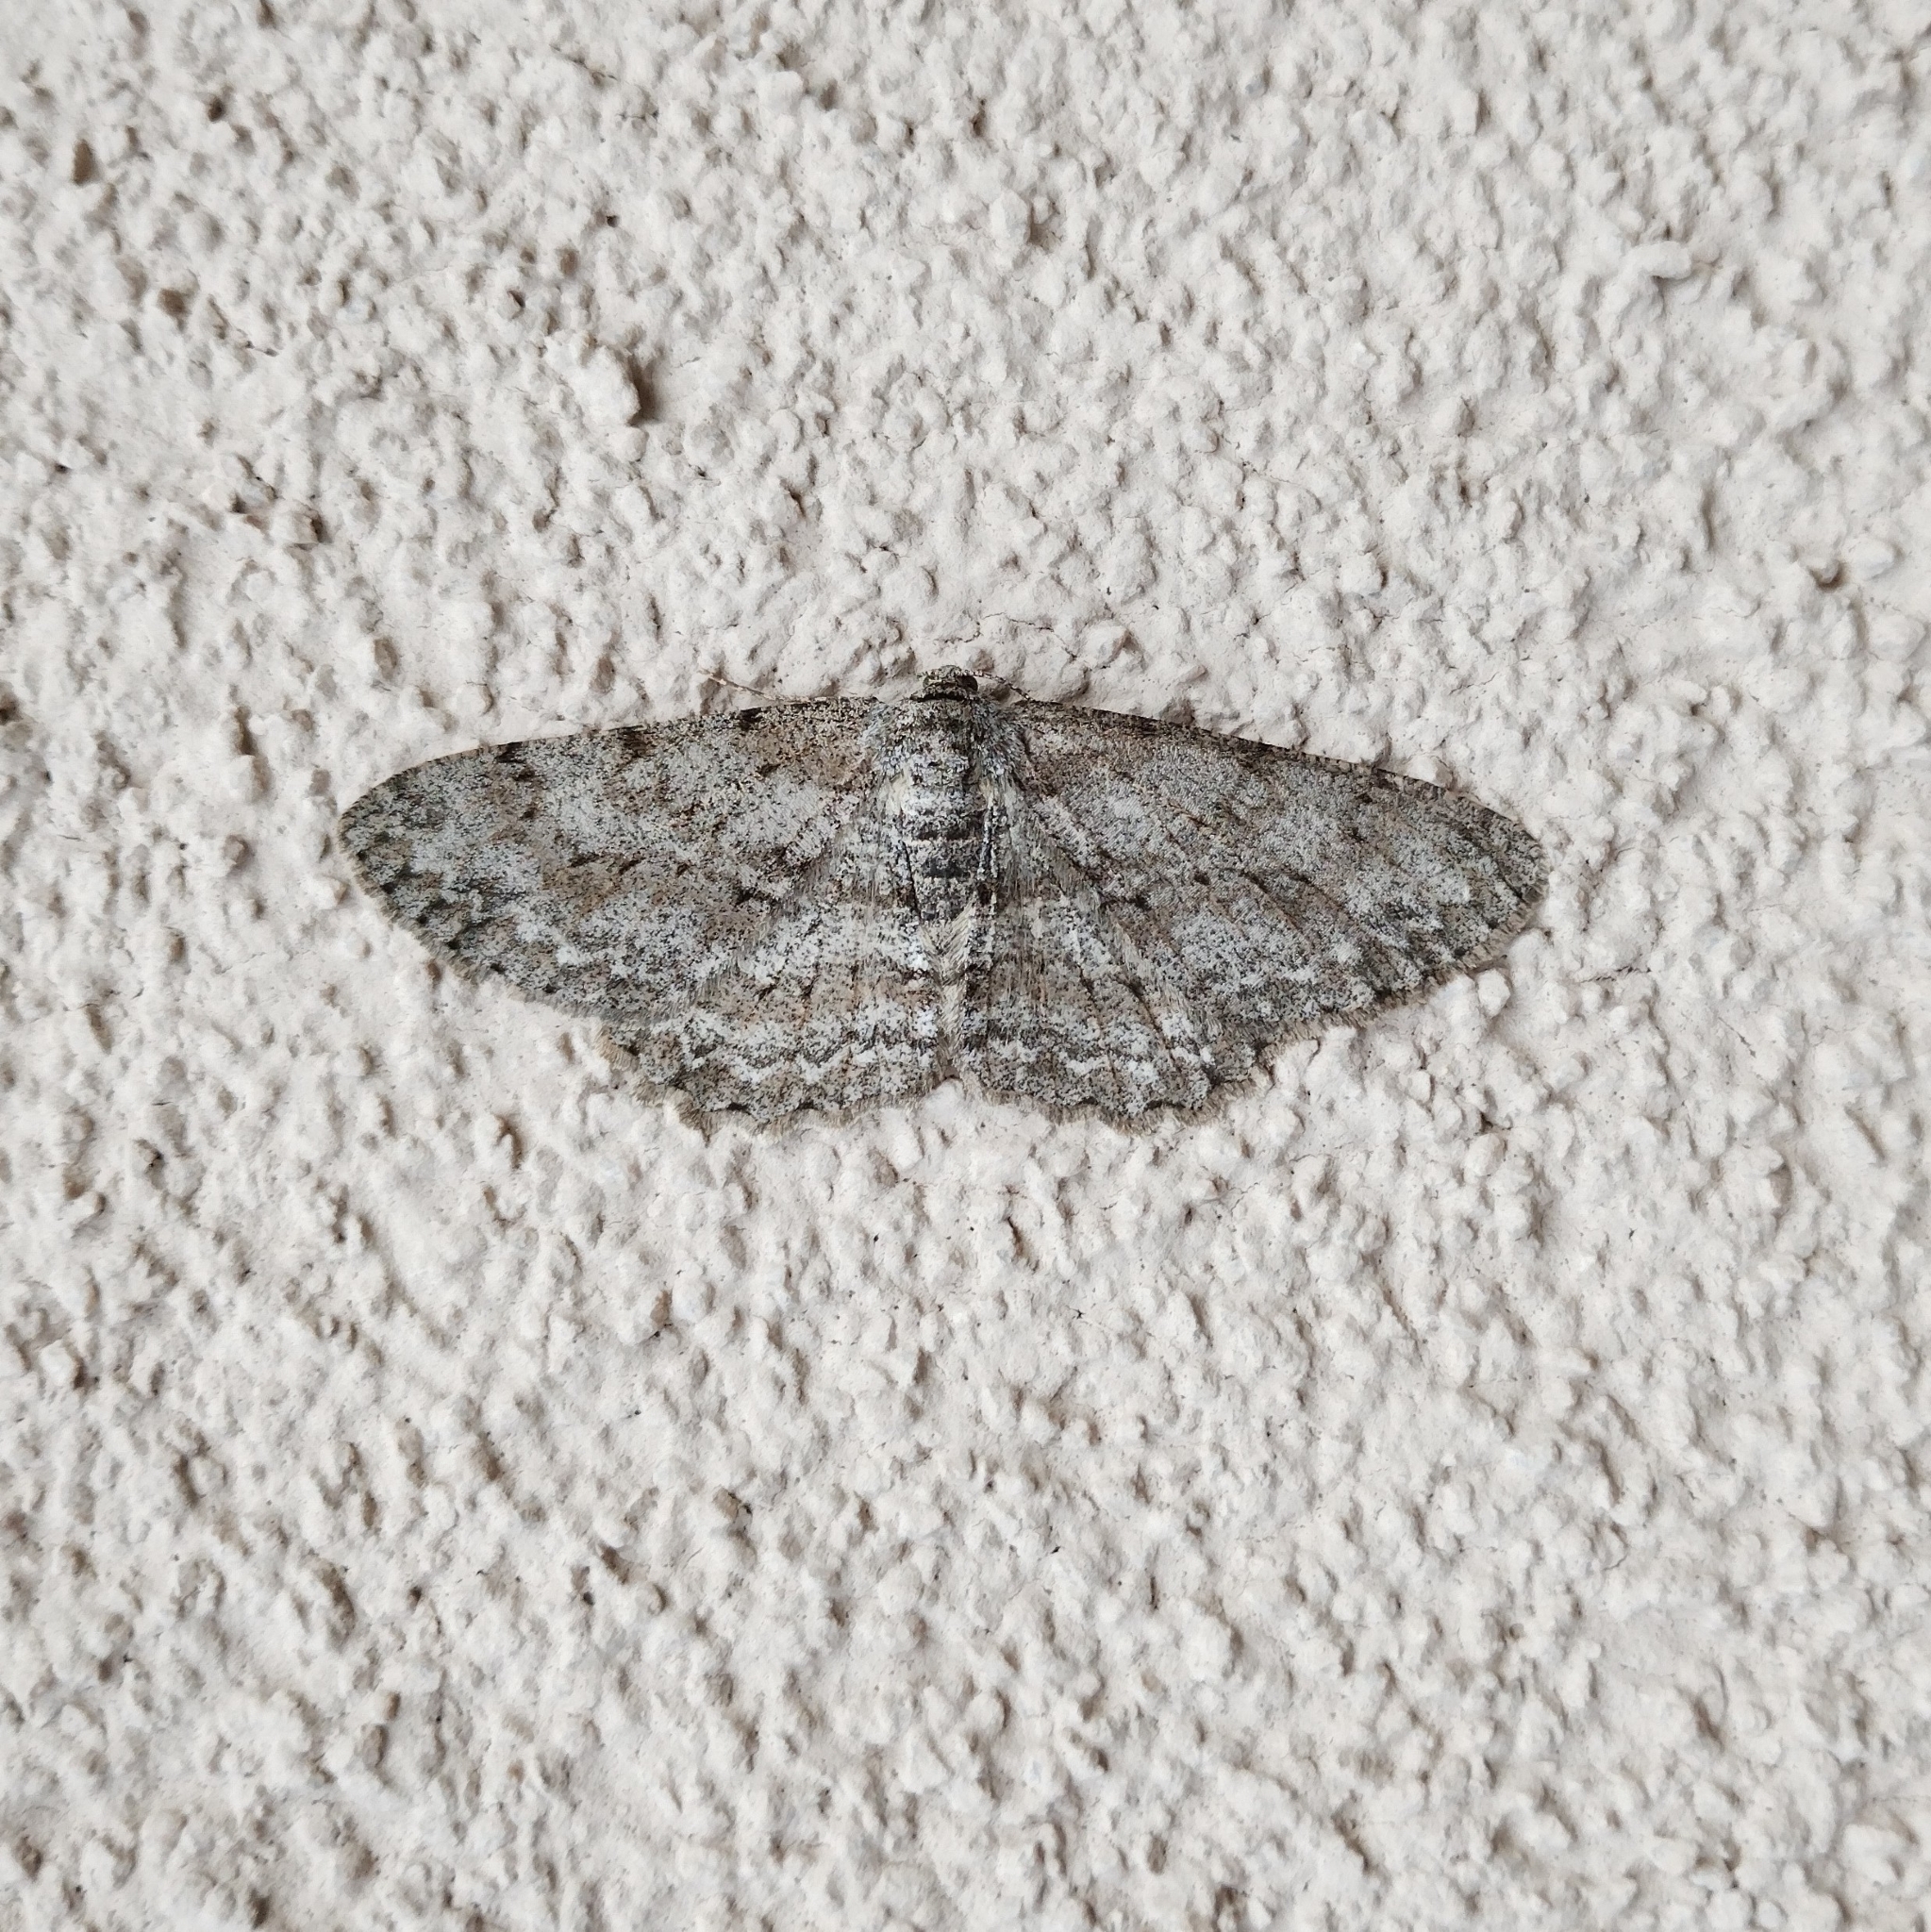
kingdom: Animalia
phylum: Arthropoda
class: Insecta
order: Lepidoptera
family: Geometridae
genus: Hypomecis
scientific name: Hypomecis punctinalis
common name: Pale oak beauty
